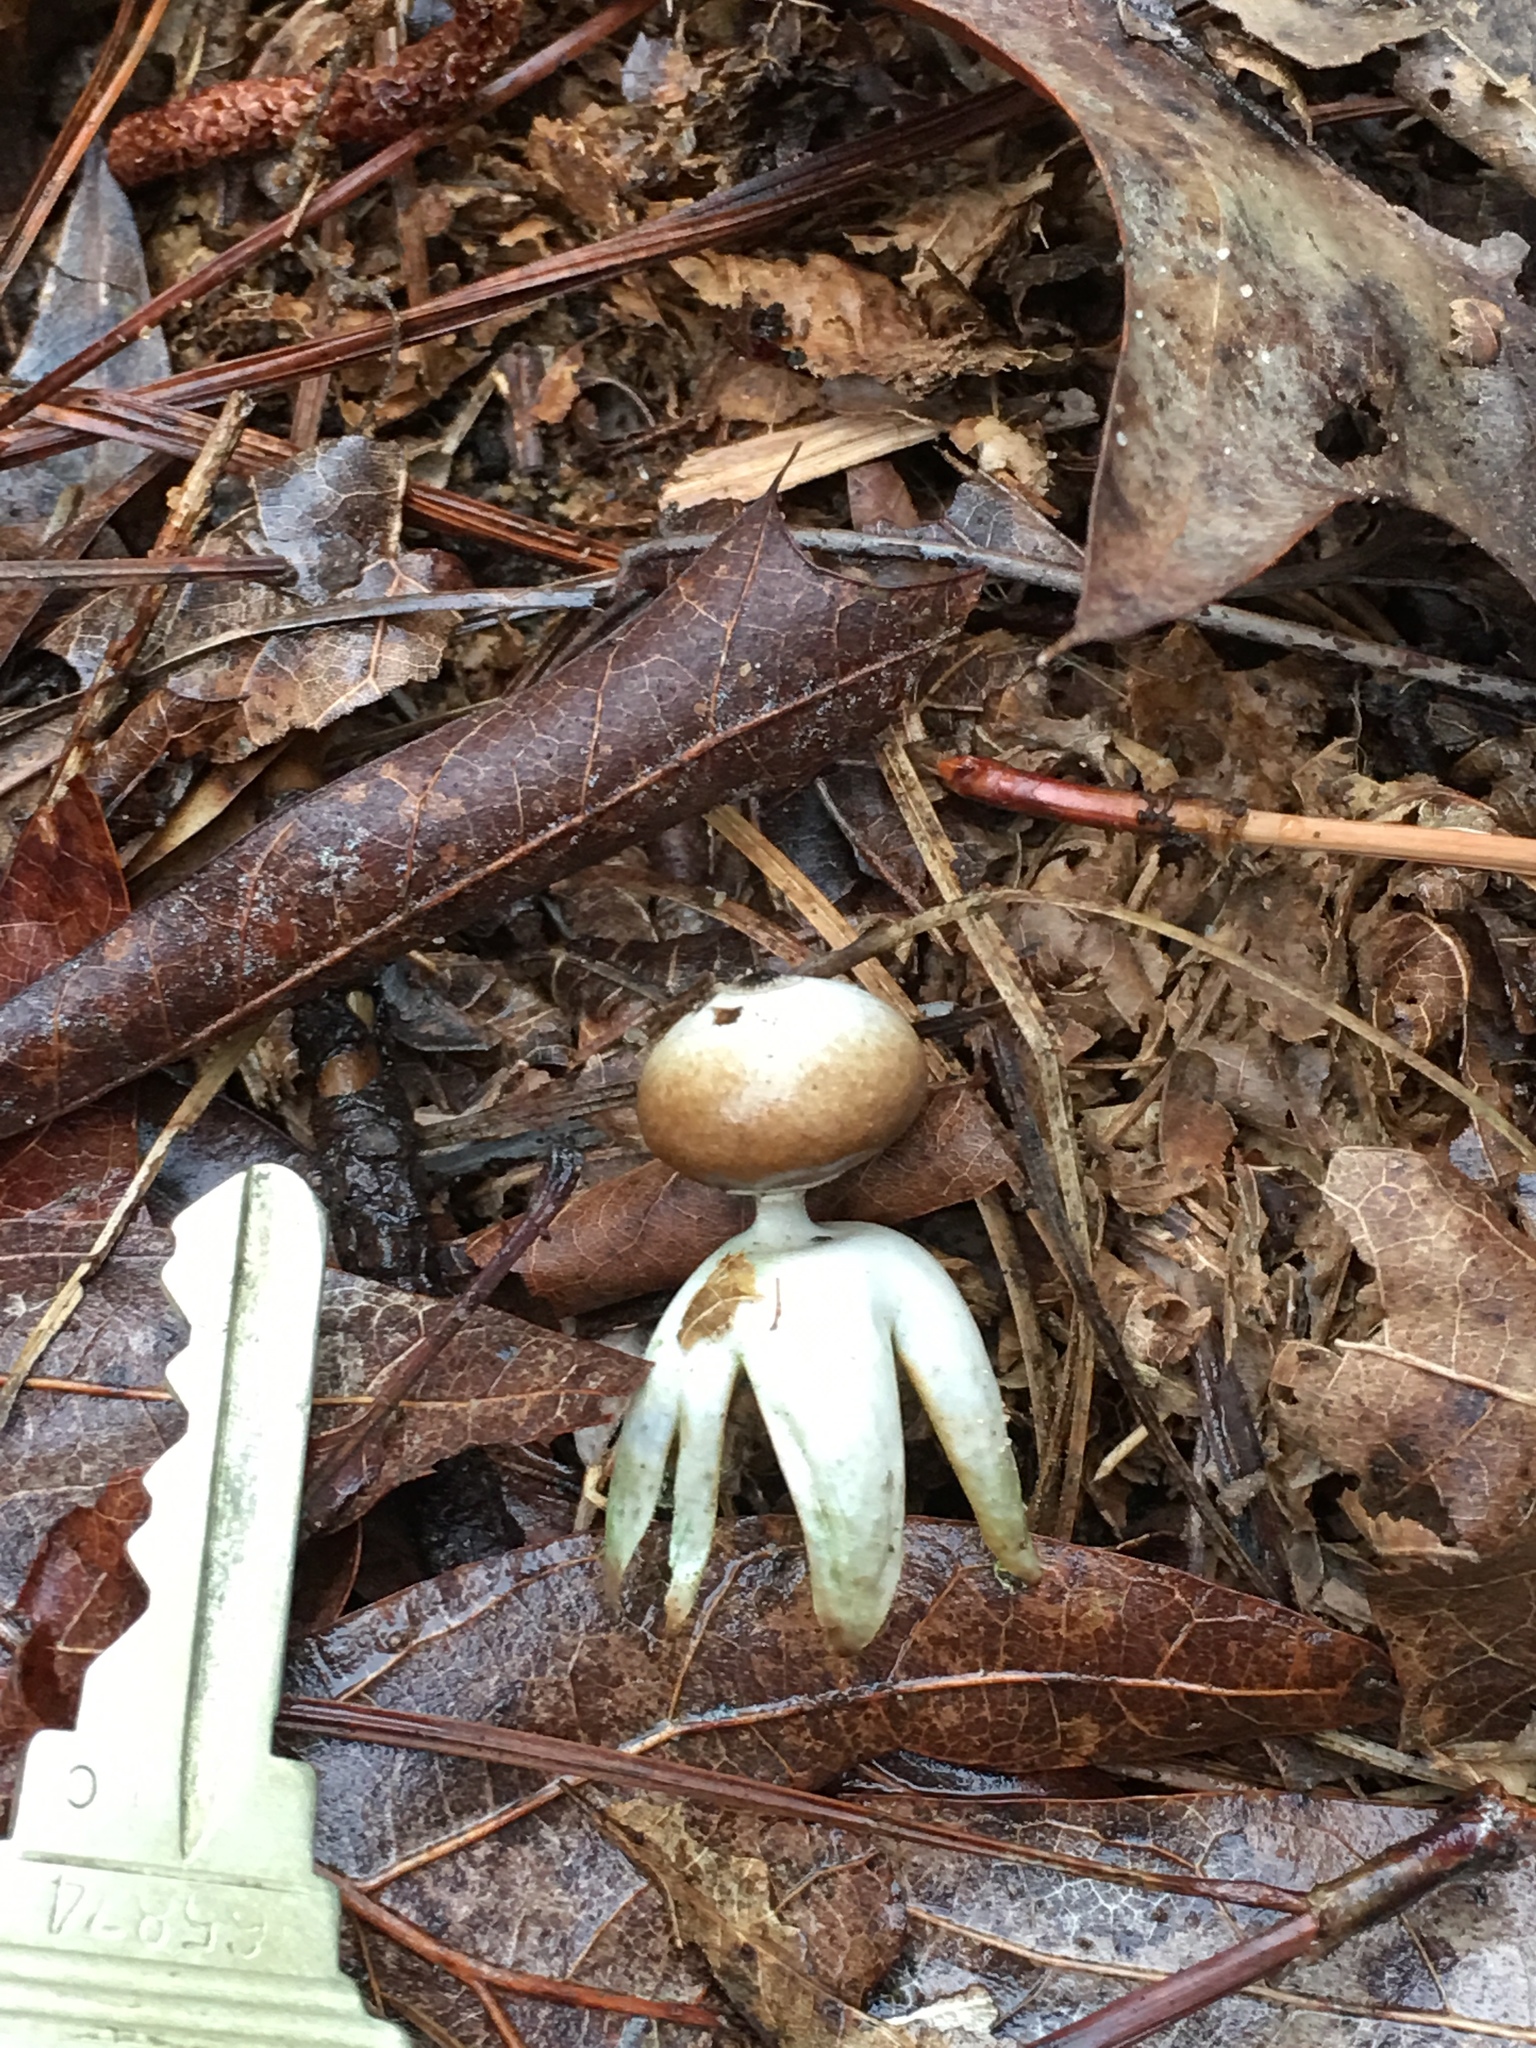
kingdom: Fungi
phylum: Basidiomycota
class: Agaricomycetes
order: Geastrales
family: Geastraceae
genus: Geastrum
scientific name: Geastrum quadrifidum
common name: Rayed earthstar
